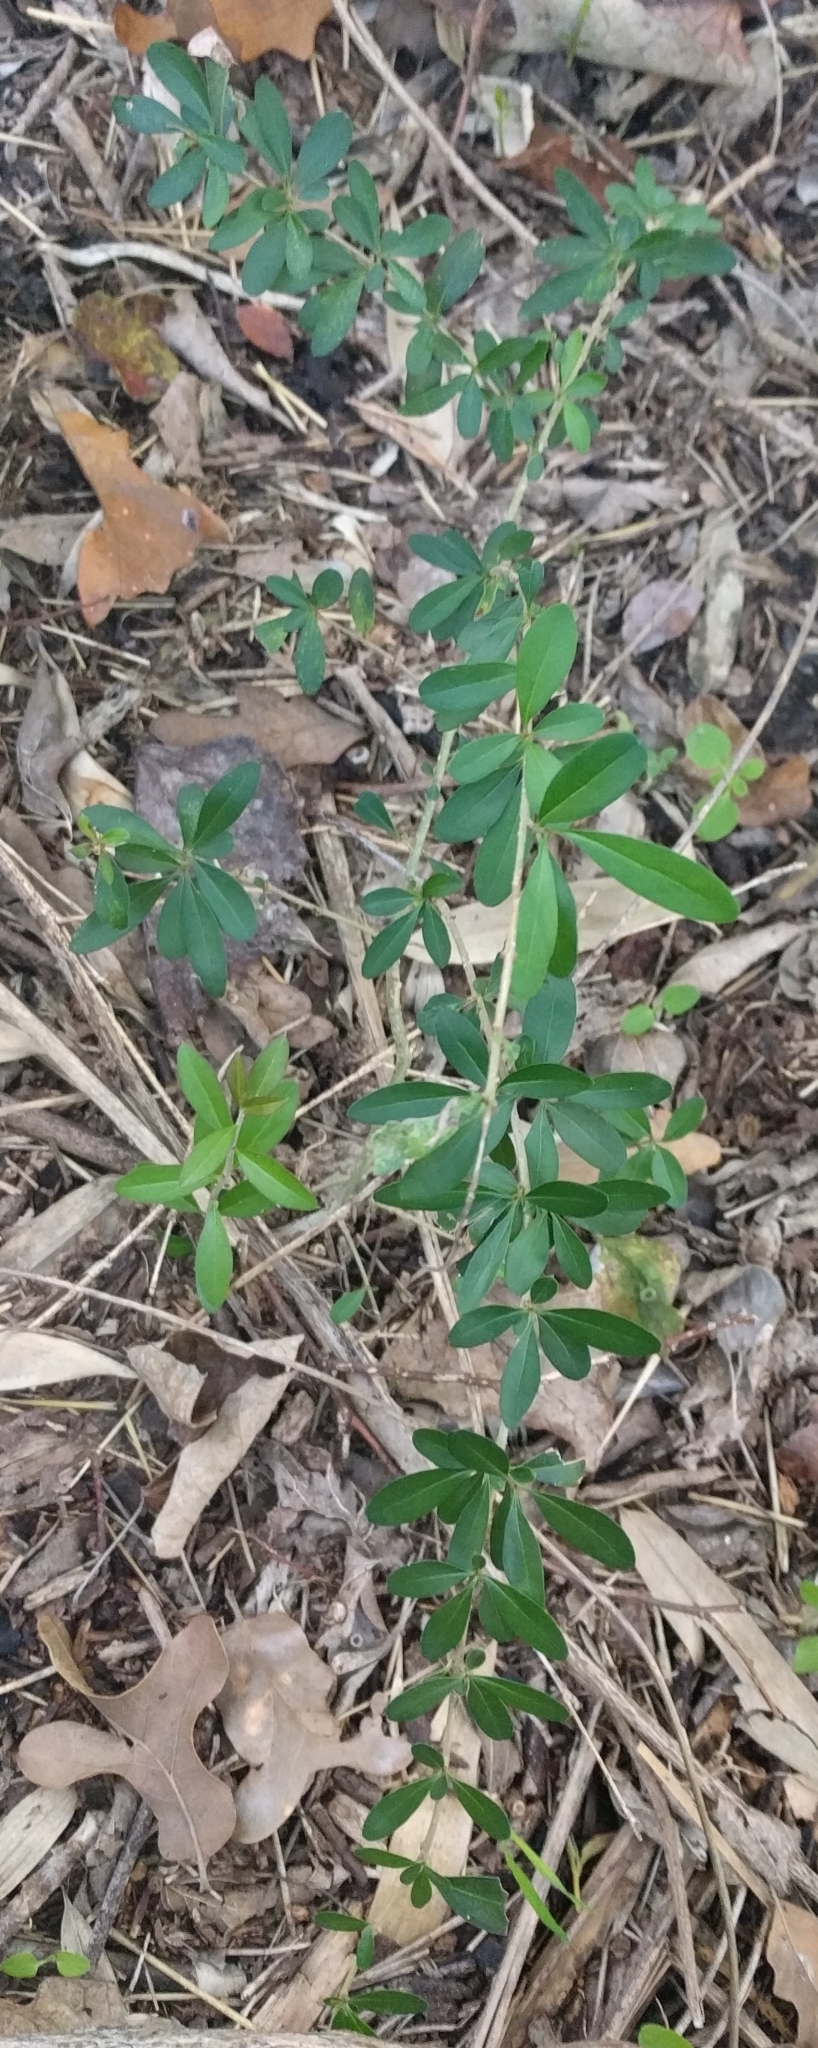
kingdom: Plantae
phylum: Tracheophyta
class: Magnoliopsida
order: Lamiales
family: Oleaceae
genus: Ligustrum
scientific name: Ligustrum quihoui
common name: Waxyleaf privet
